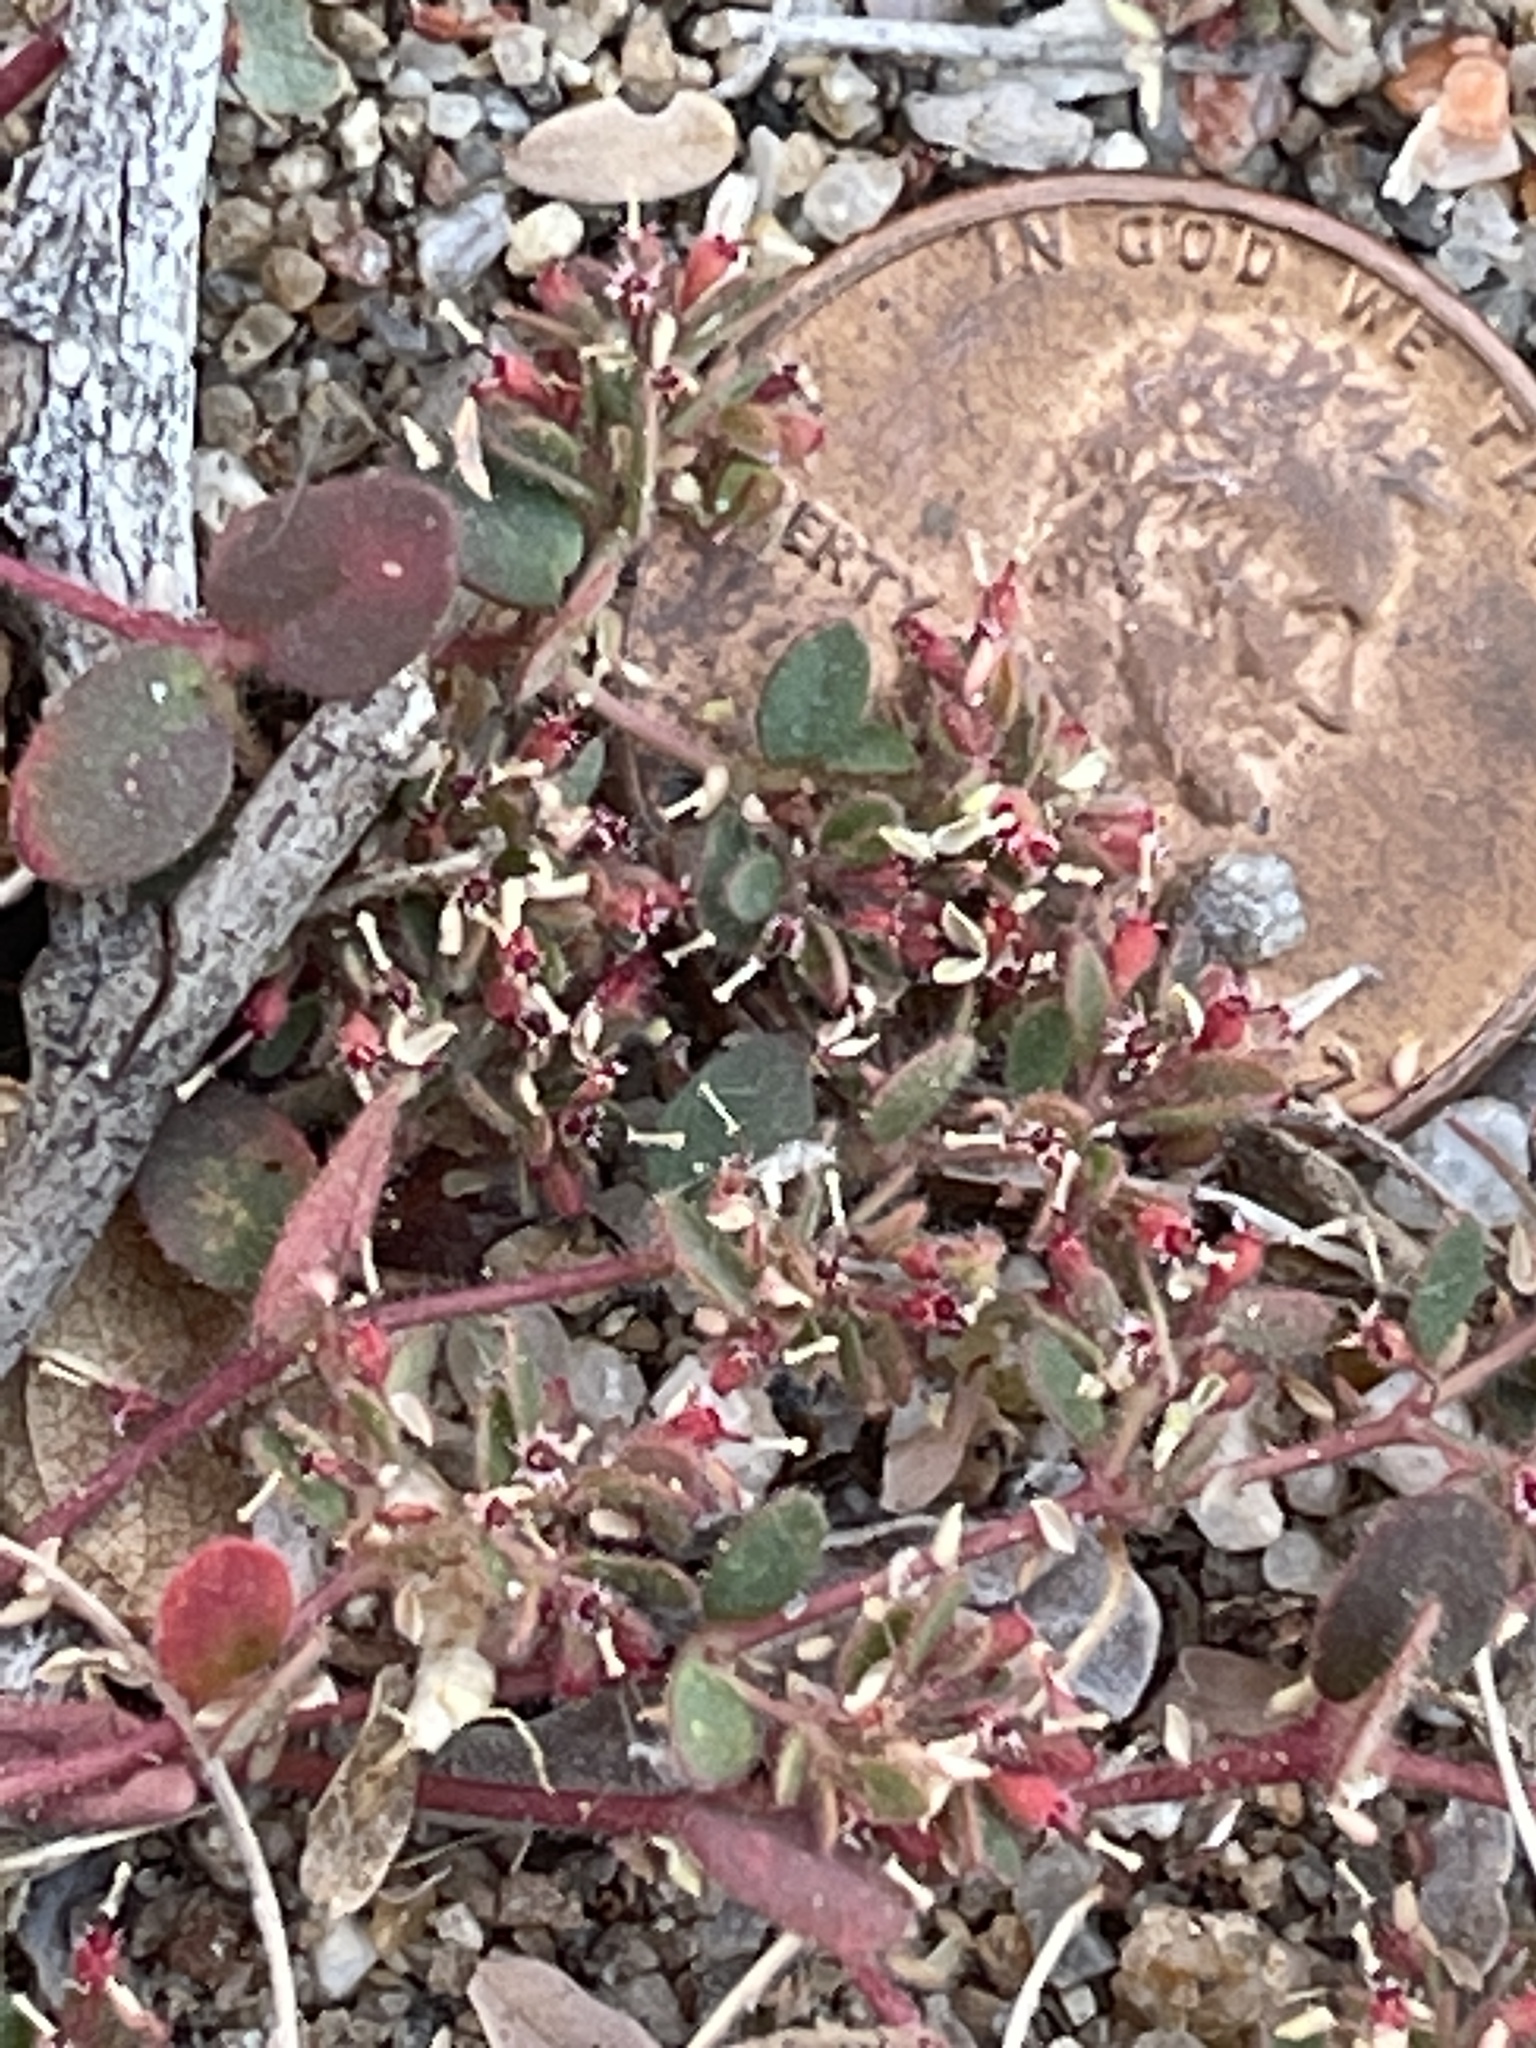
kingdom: Plantae
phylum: Tracheophyta
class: Magnoliopsida
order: Malpighiales
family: Euphorbiaceae
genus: Euphorbia
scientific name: Euphorbia setiloba
